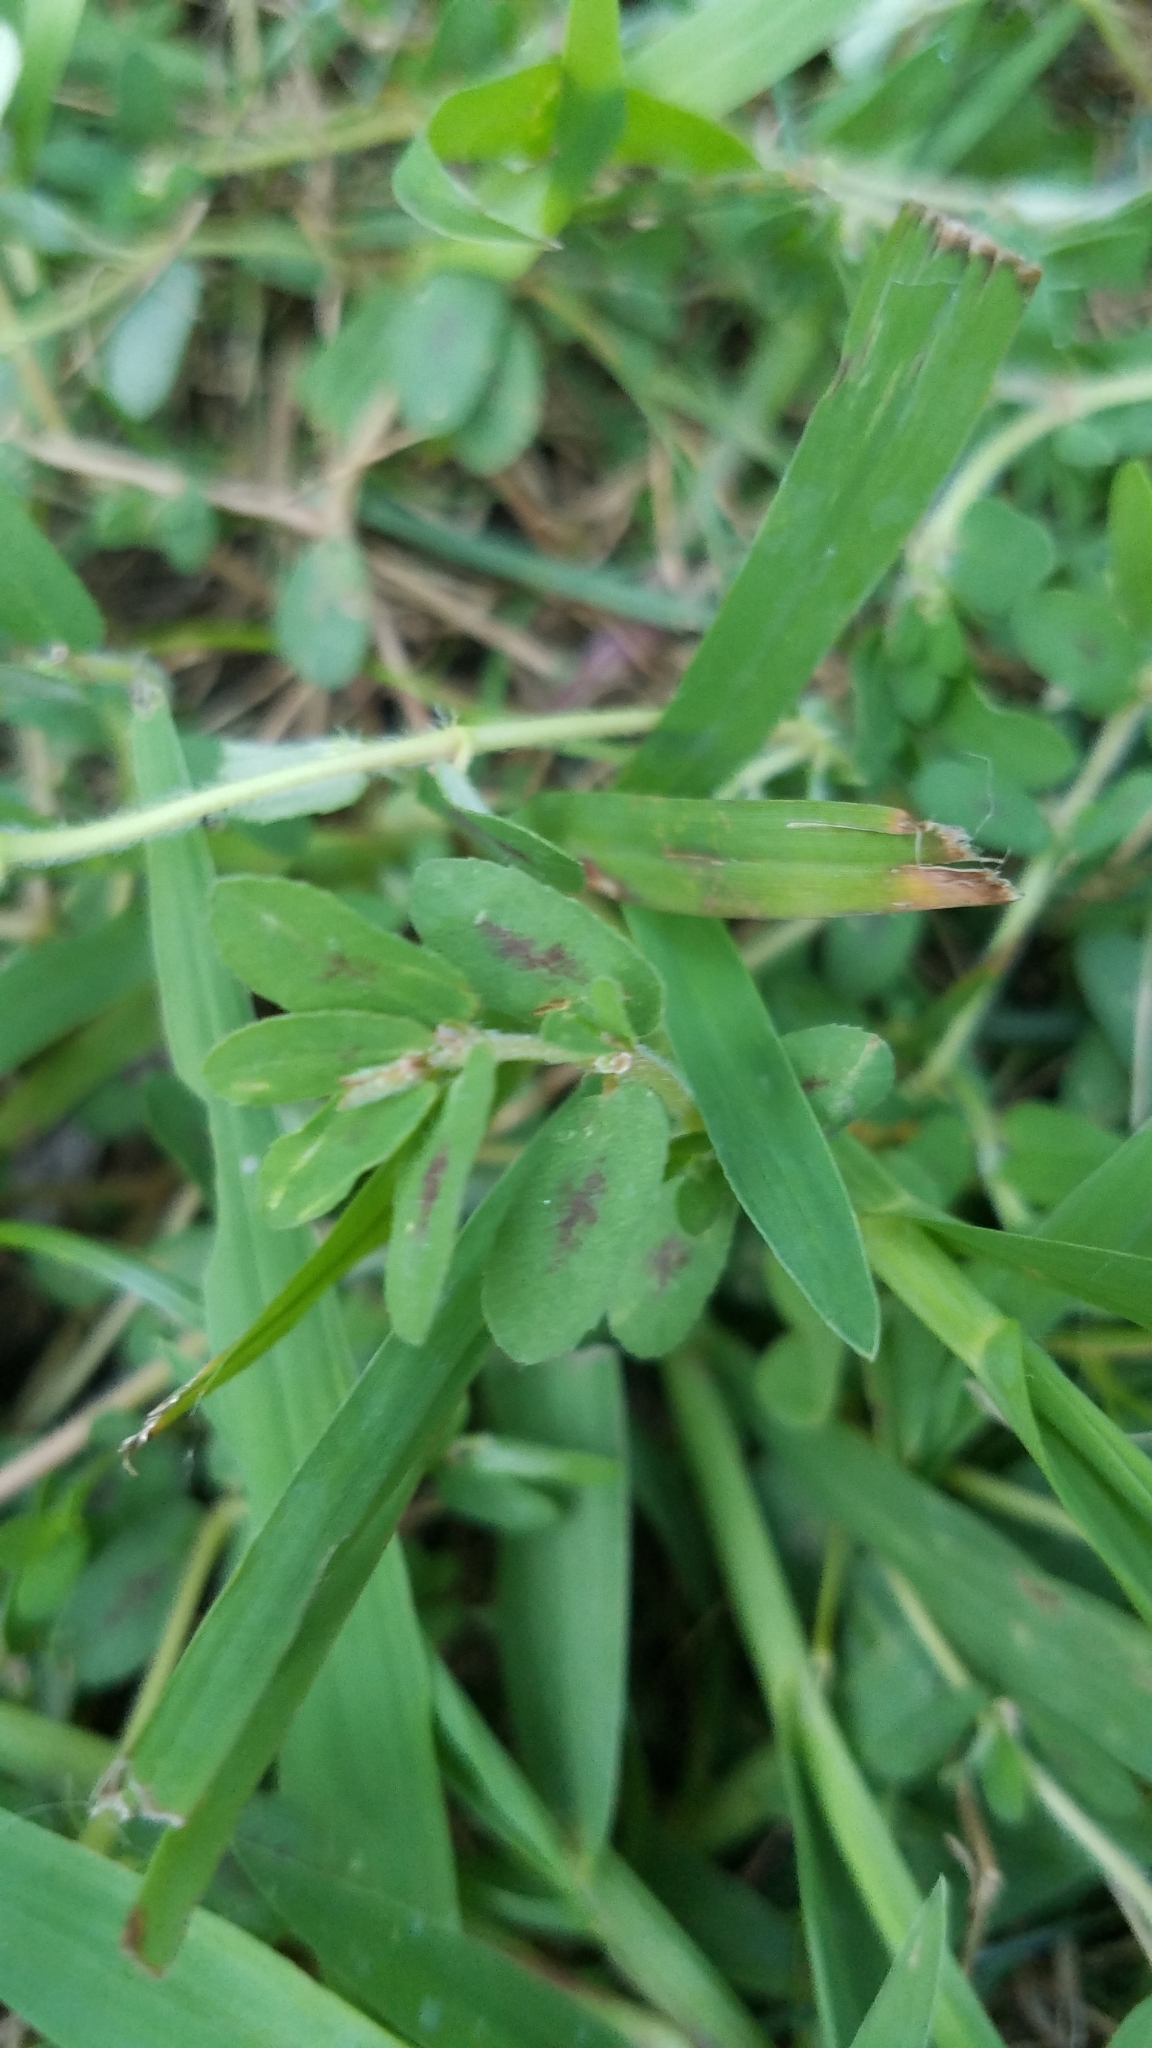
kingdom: Plantae
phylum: Tracheophyta
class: Magnoliopsida
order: Malpighiales
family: Euphorbiaceae
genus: Euphorbia
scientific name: Euphorbia maculata
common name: Spotted spurge
